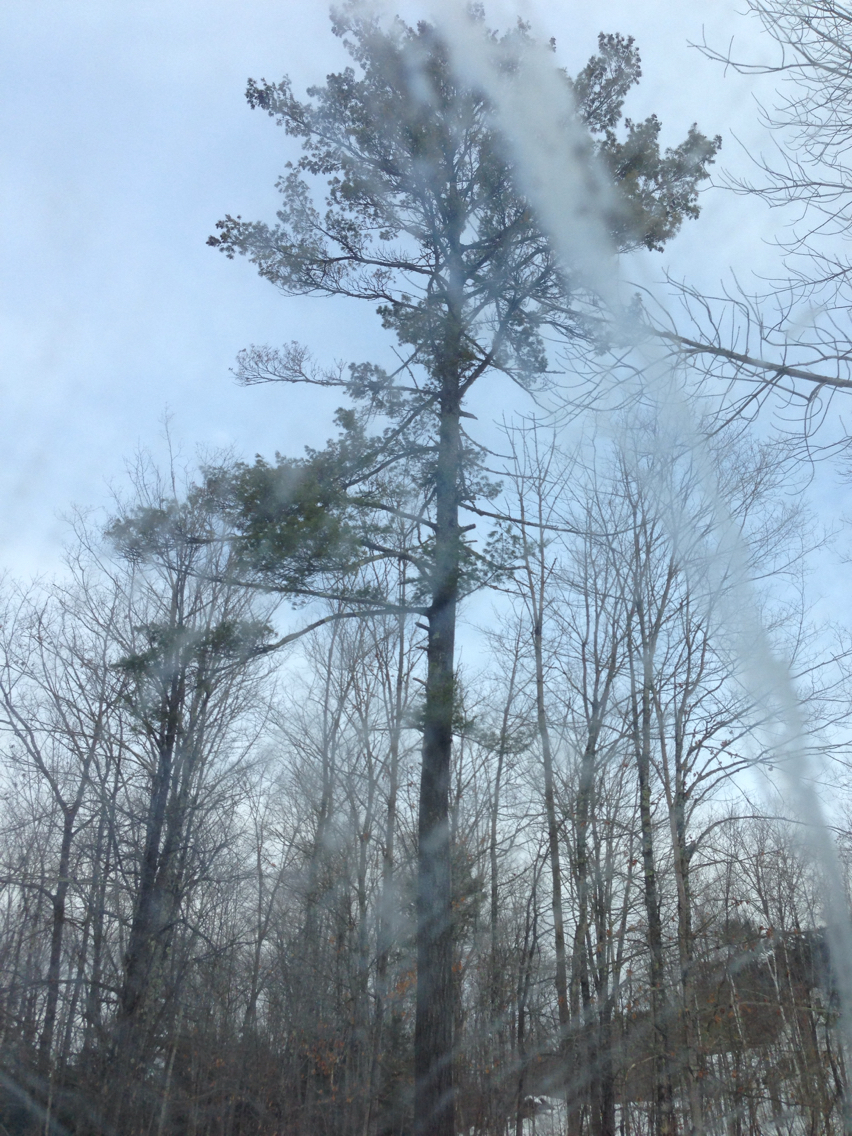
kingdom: Plantae
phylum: Tracheophyta
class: Pinopsida
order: Pinales
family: Pinaceae
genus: Pinus
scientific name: Pinus strobus
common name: Weymouth pine
